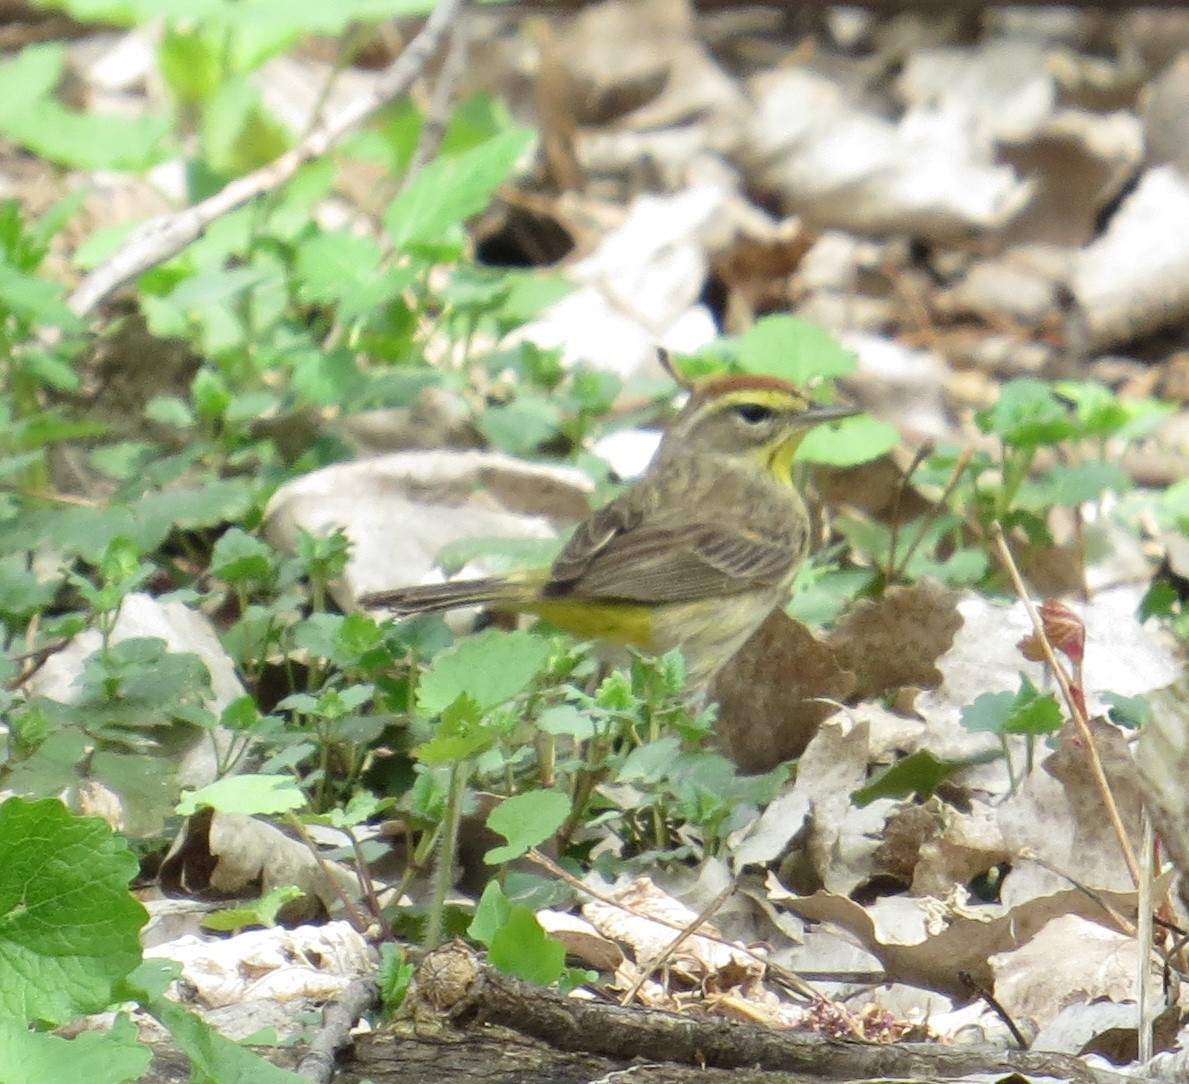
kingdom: Animalia
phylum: Chordata
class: Aves
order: Passeriformes
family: Parulidae
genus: Setophaga
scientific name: Setophaga palmarum
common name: Palm warbler
